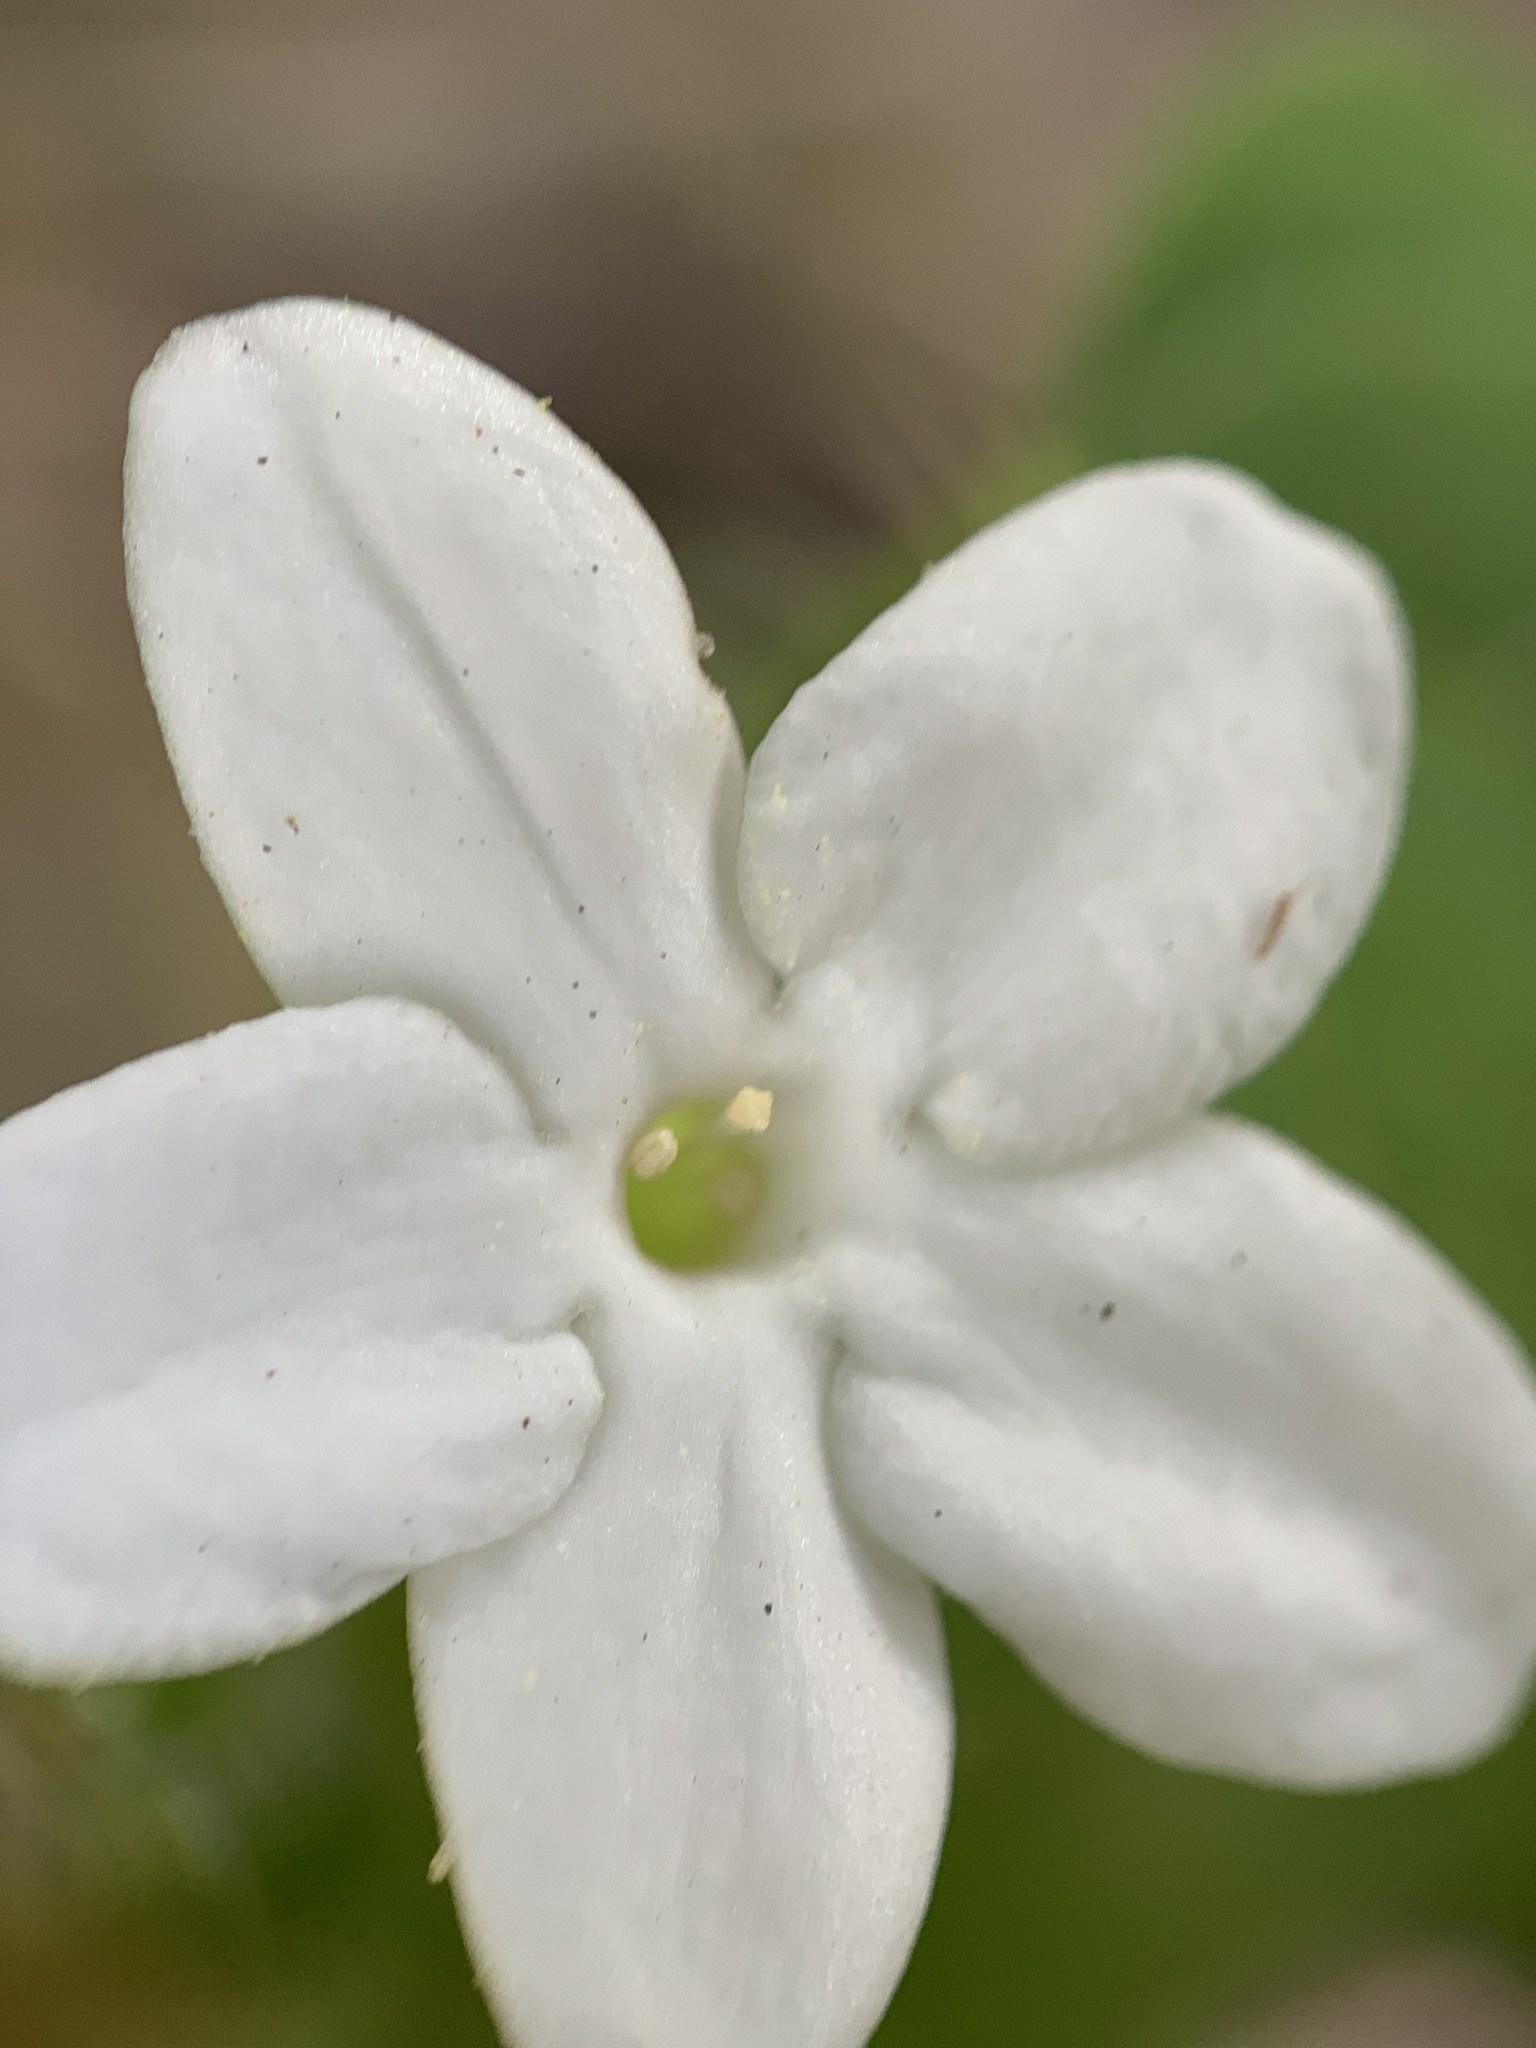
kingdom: Plantae
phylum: Tracheophyta
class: Magnoliopsida
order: Malpighiales
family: Euphorbiaceae
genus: Cnidoscolus
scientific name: Cnidoscolus stimulosus
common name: Bull-nettle
